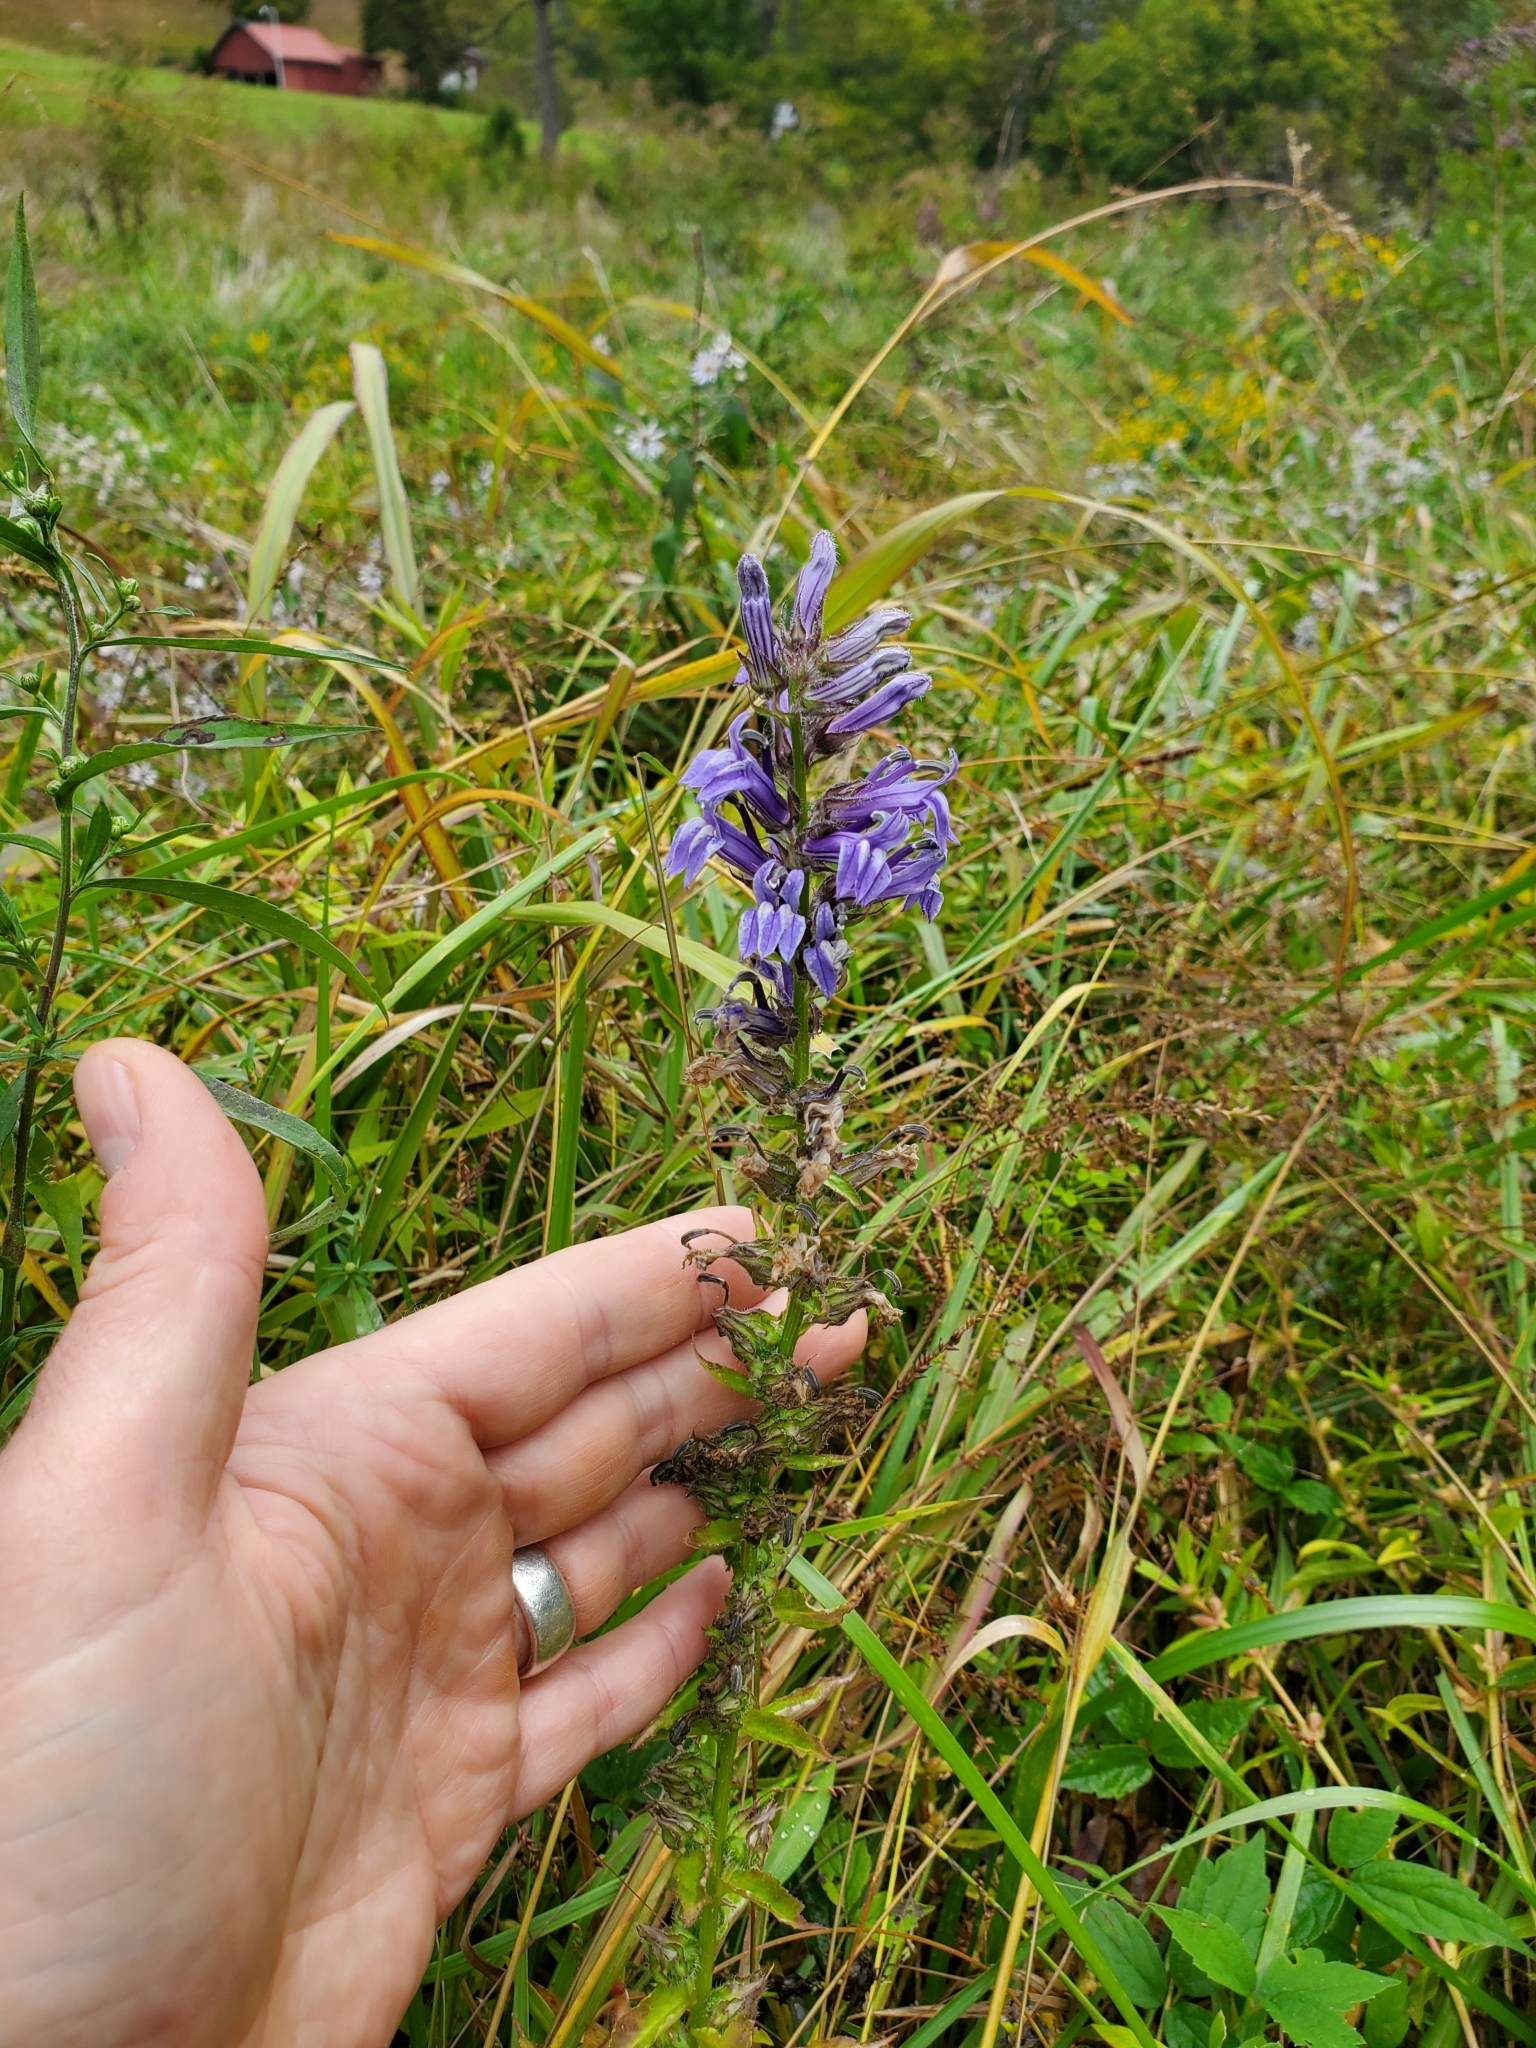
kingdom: Plantae
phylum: Tracheophyta
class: Magnoliopsida
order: Asterales
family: Campanulaceae
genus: Lobelia
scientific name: Lobelia siphilitica
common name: Great lobelia
